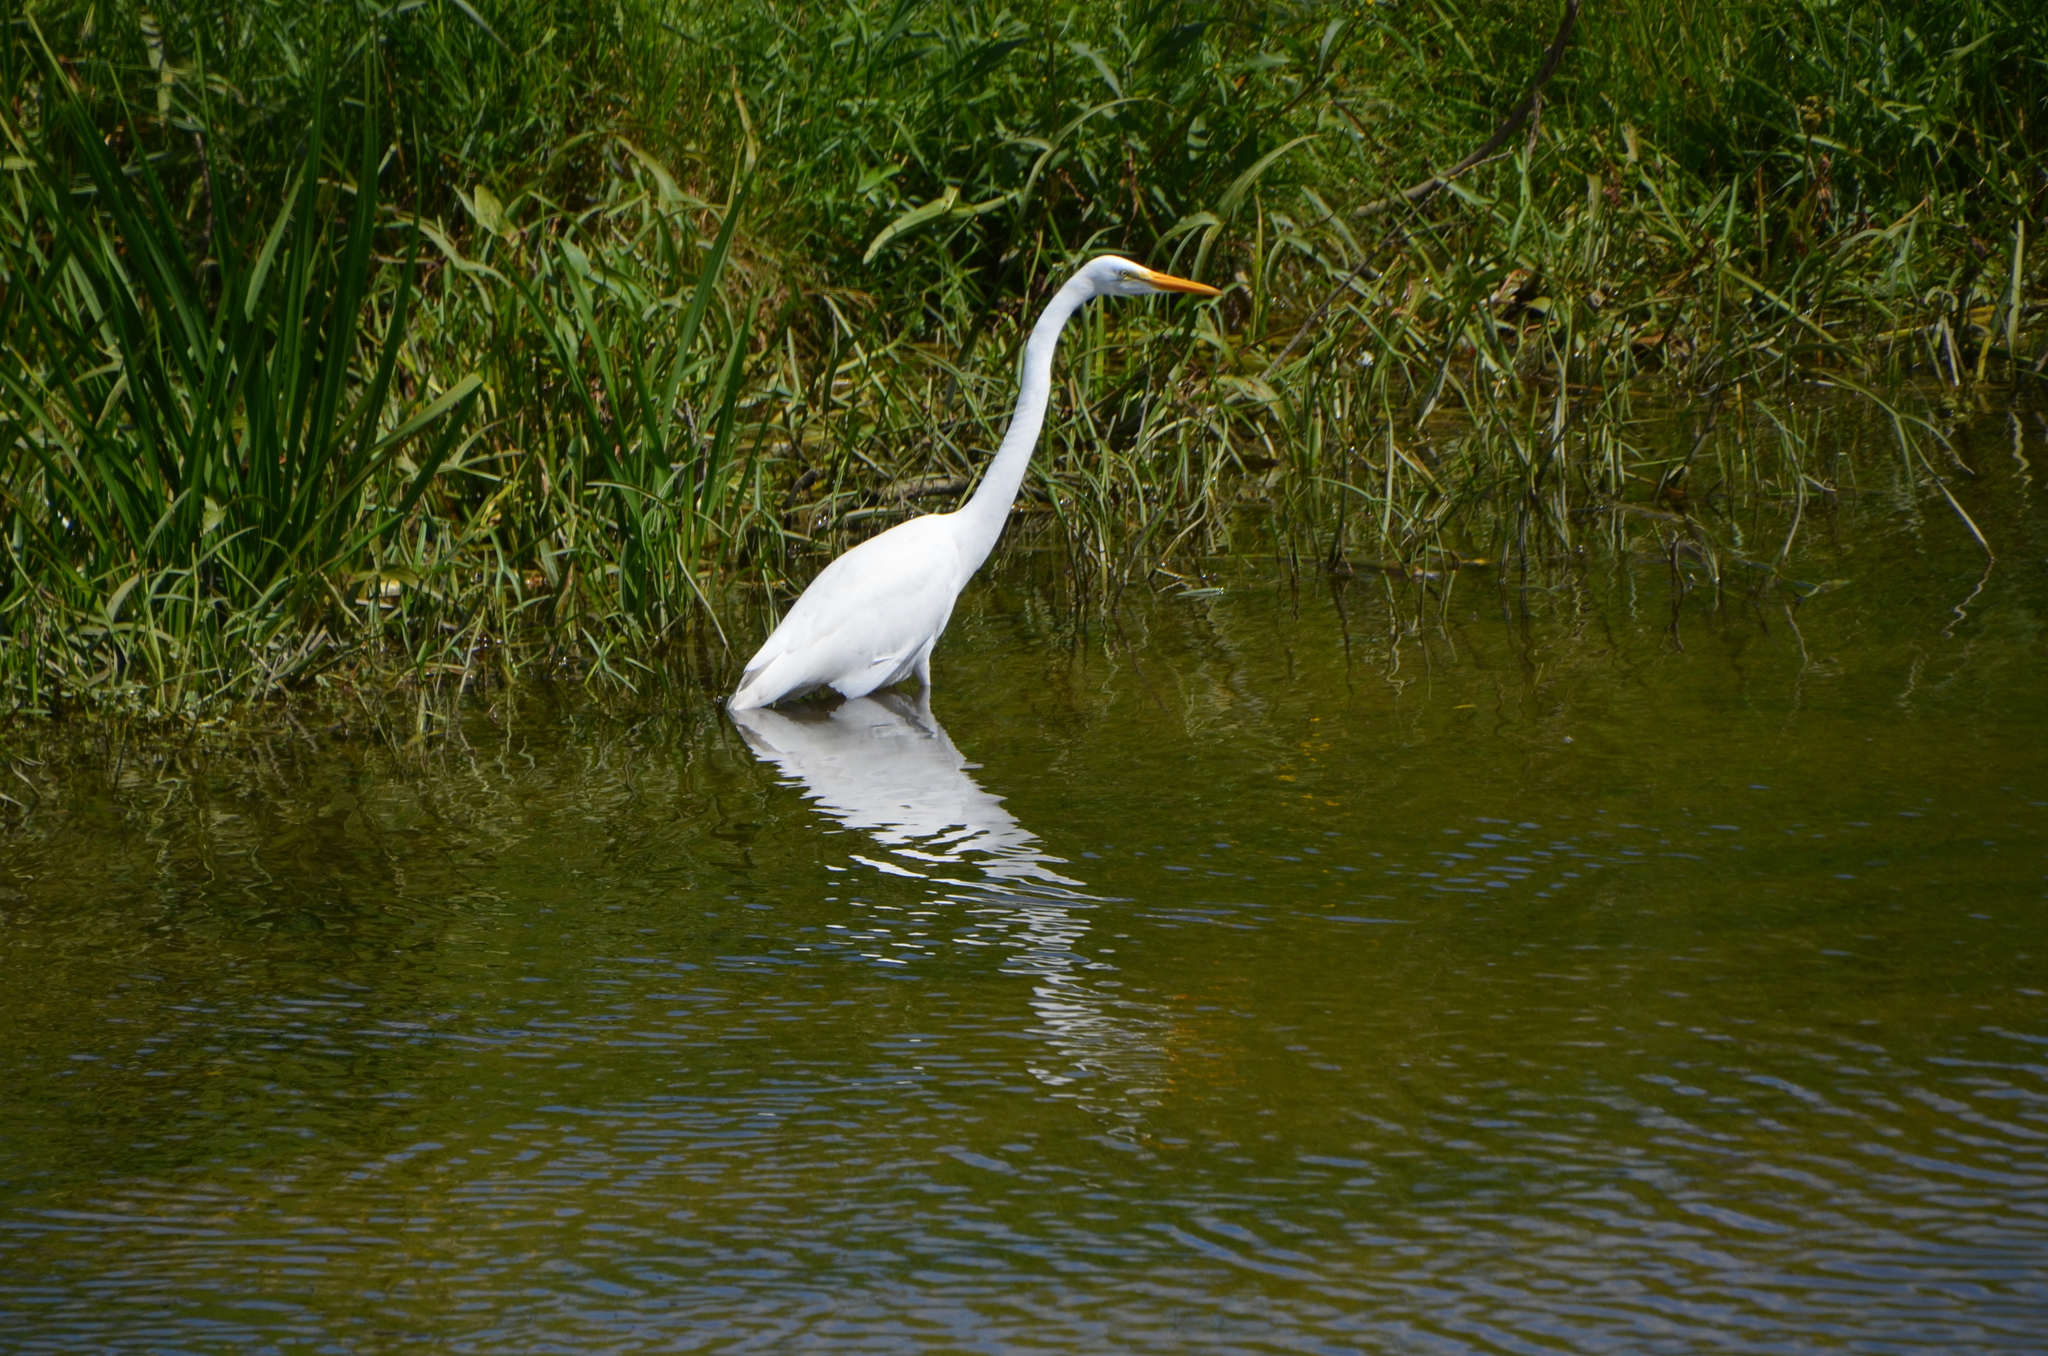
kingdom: Animalia
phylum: Chordata
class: Aves
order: Pelecaniformes
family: Ardeidae
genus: Ardea
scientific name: Ardea alba
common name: Great egret
